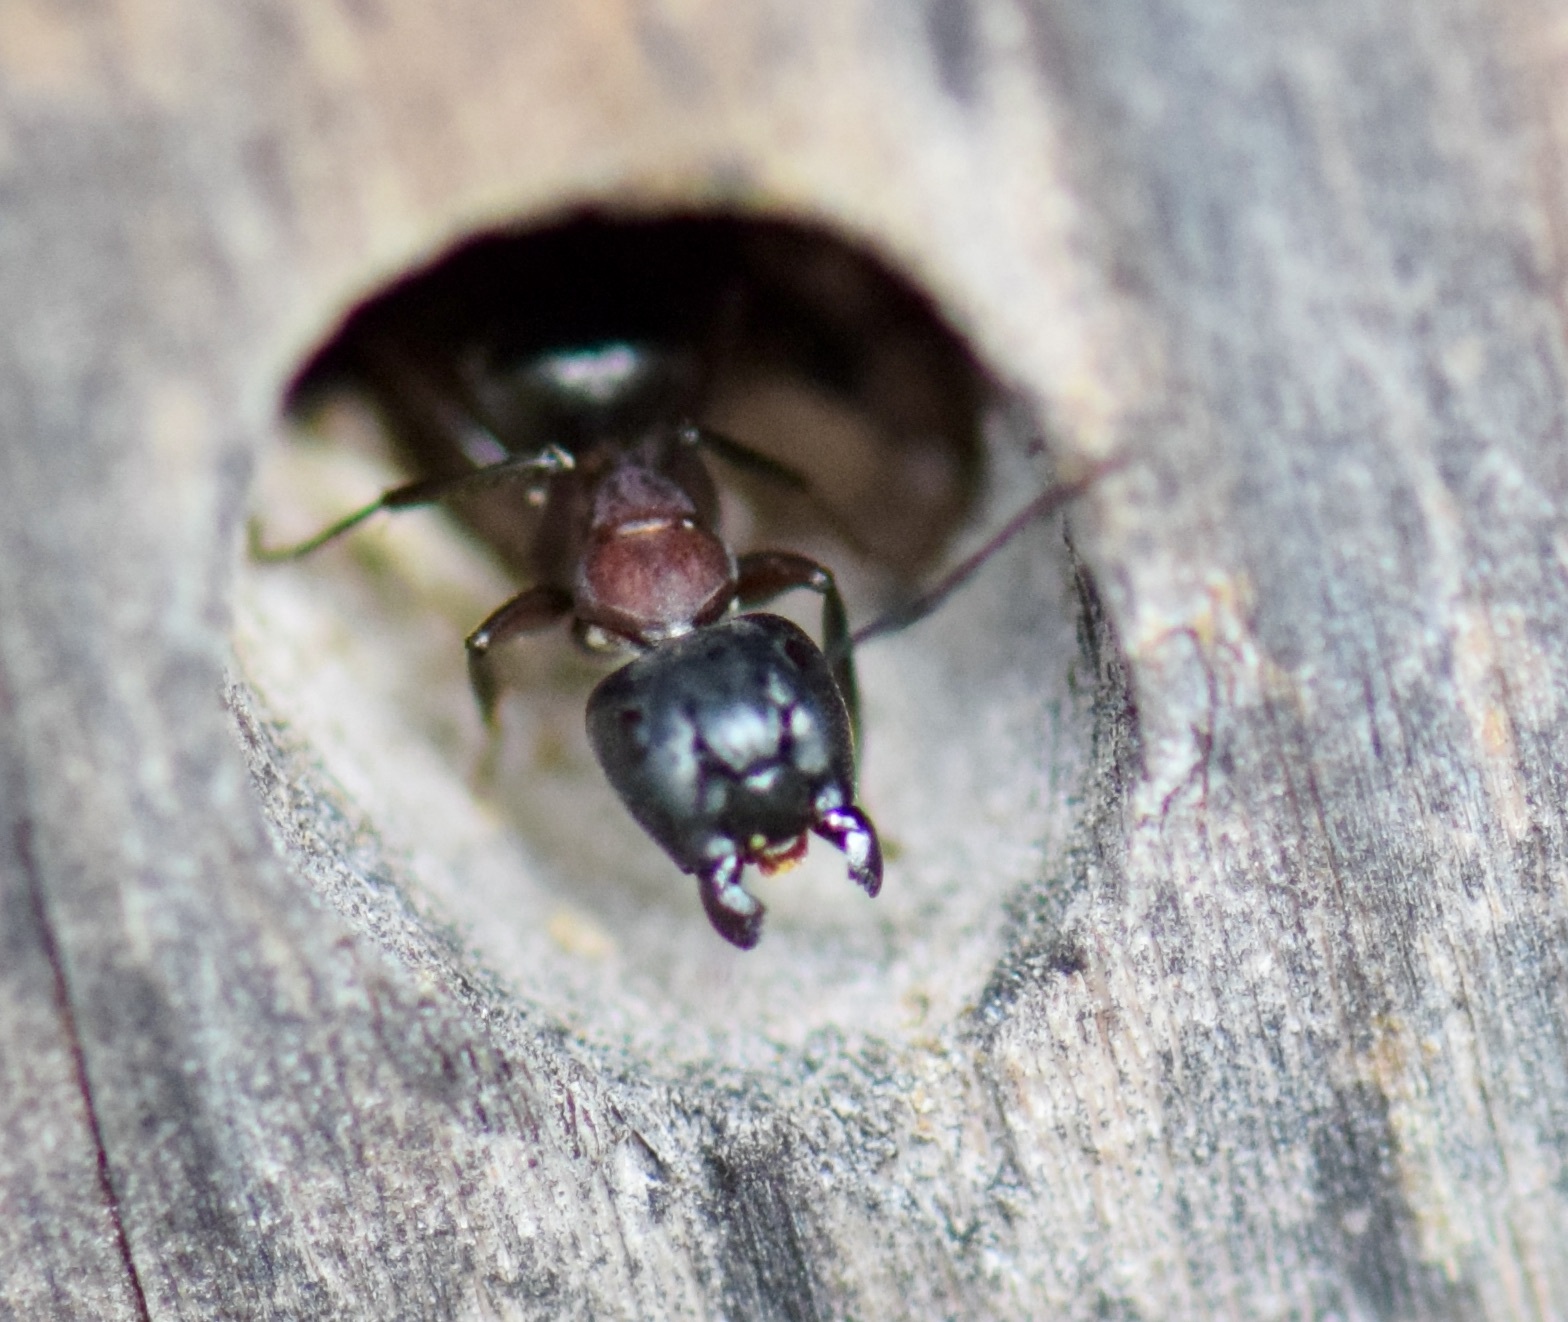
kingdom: Animalia
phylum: Arthropoda
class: Insecta
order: Hymenoptera
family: Formicidae
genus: Camponotus
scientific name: Camponotus novaeboracensis
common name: New york carpenter ant
